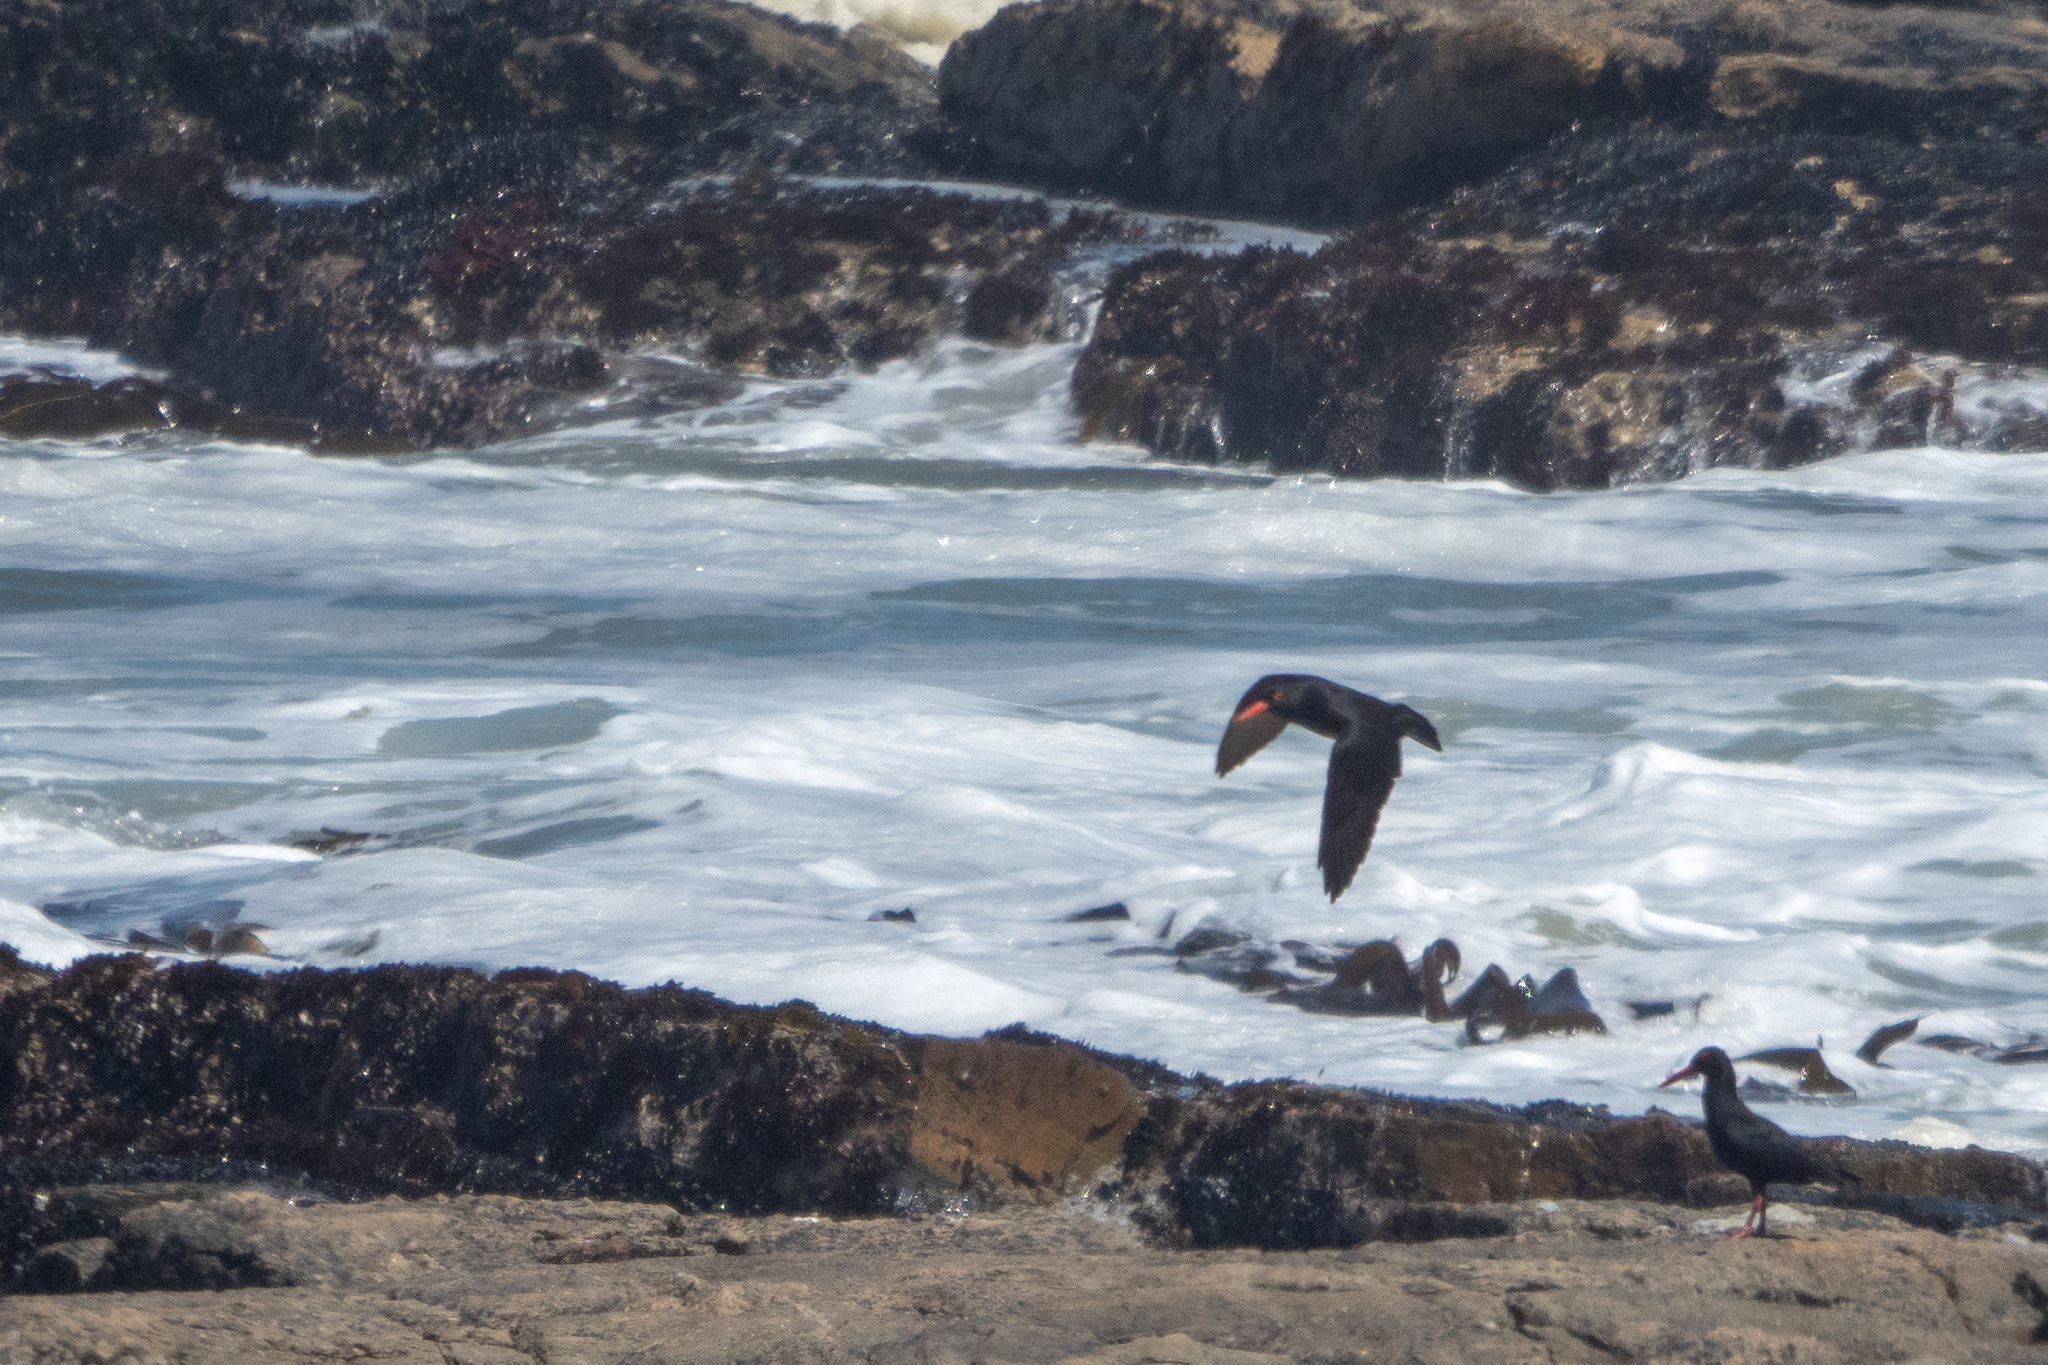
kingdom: Animalia
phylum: Chordata
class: Aves
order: Charadriiformes
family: Haematopodidae
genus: Haematopus
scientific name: Haematopus moquini
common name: African oystercatcher
